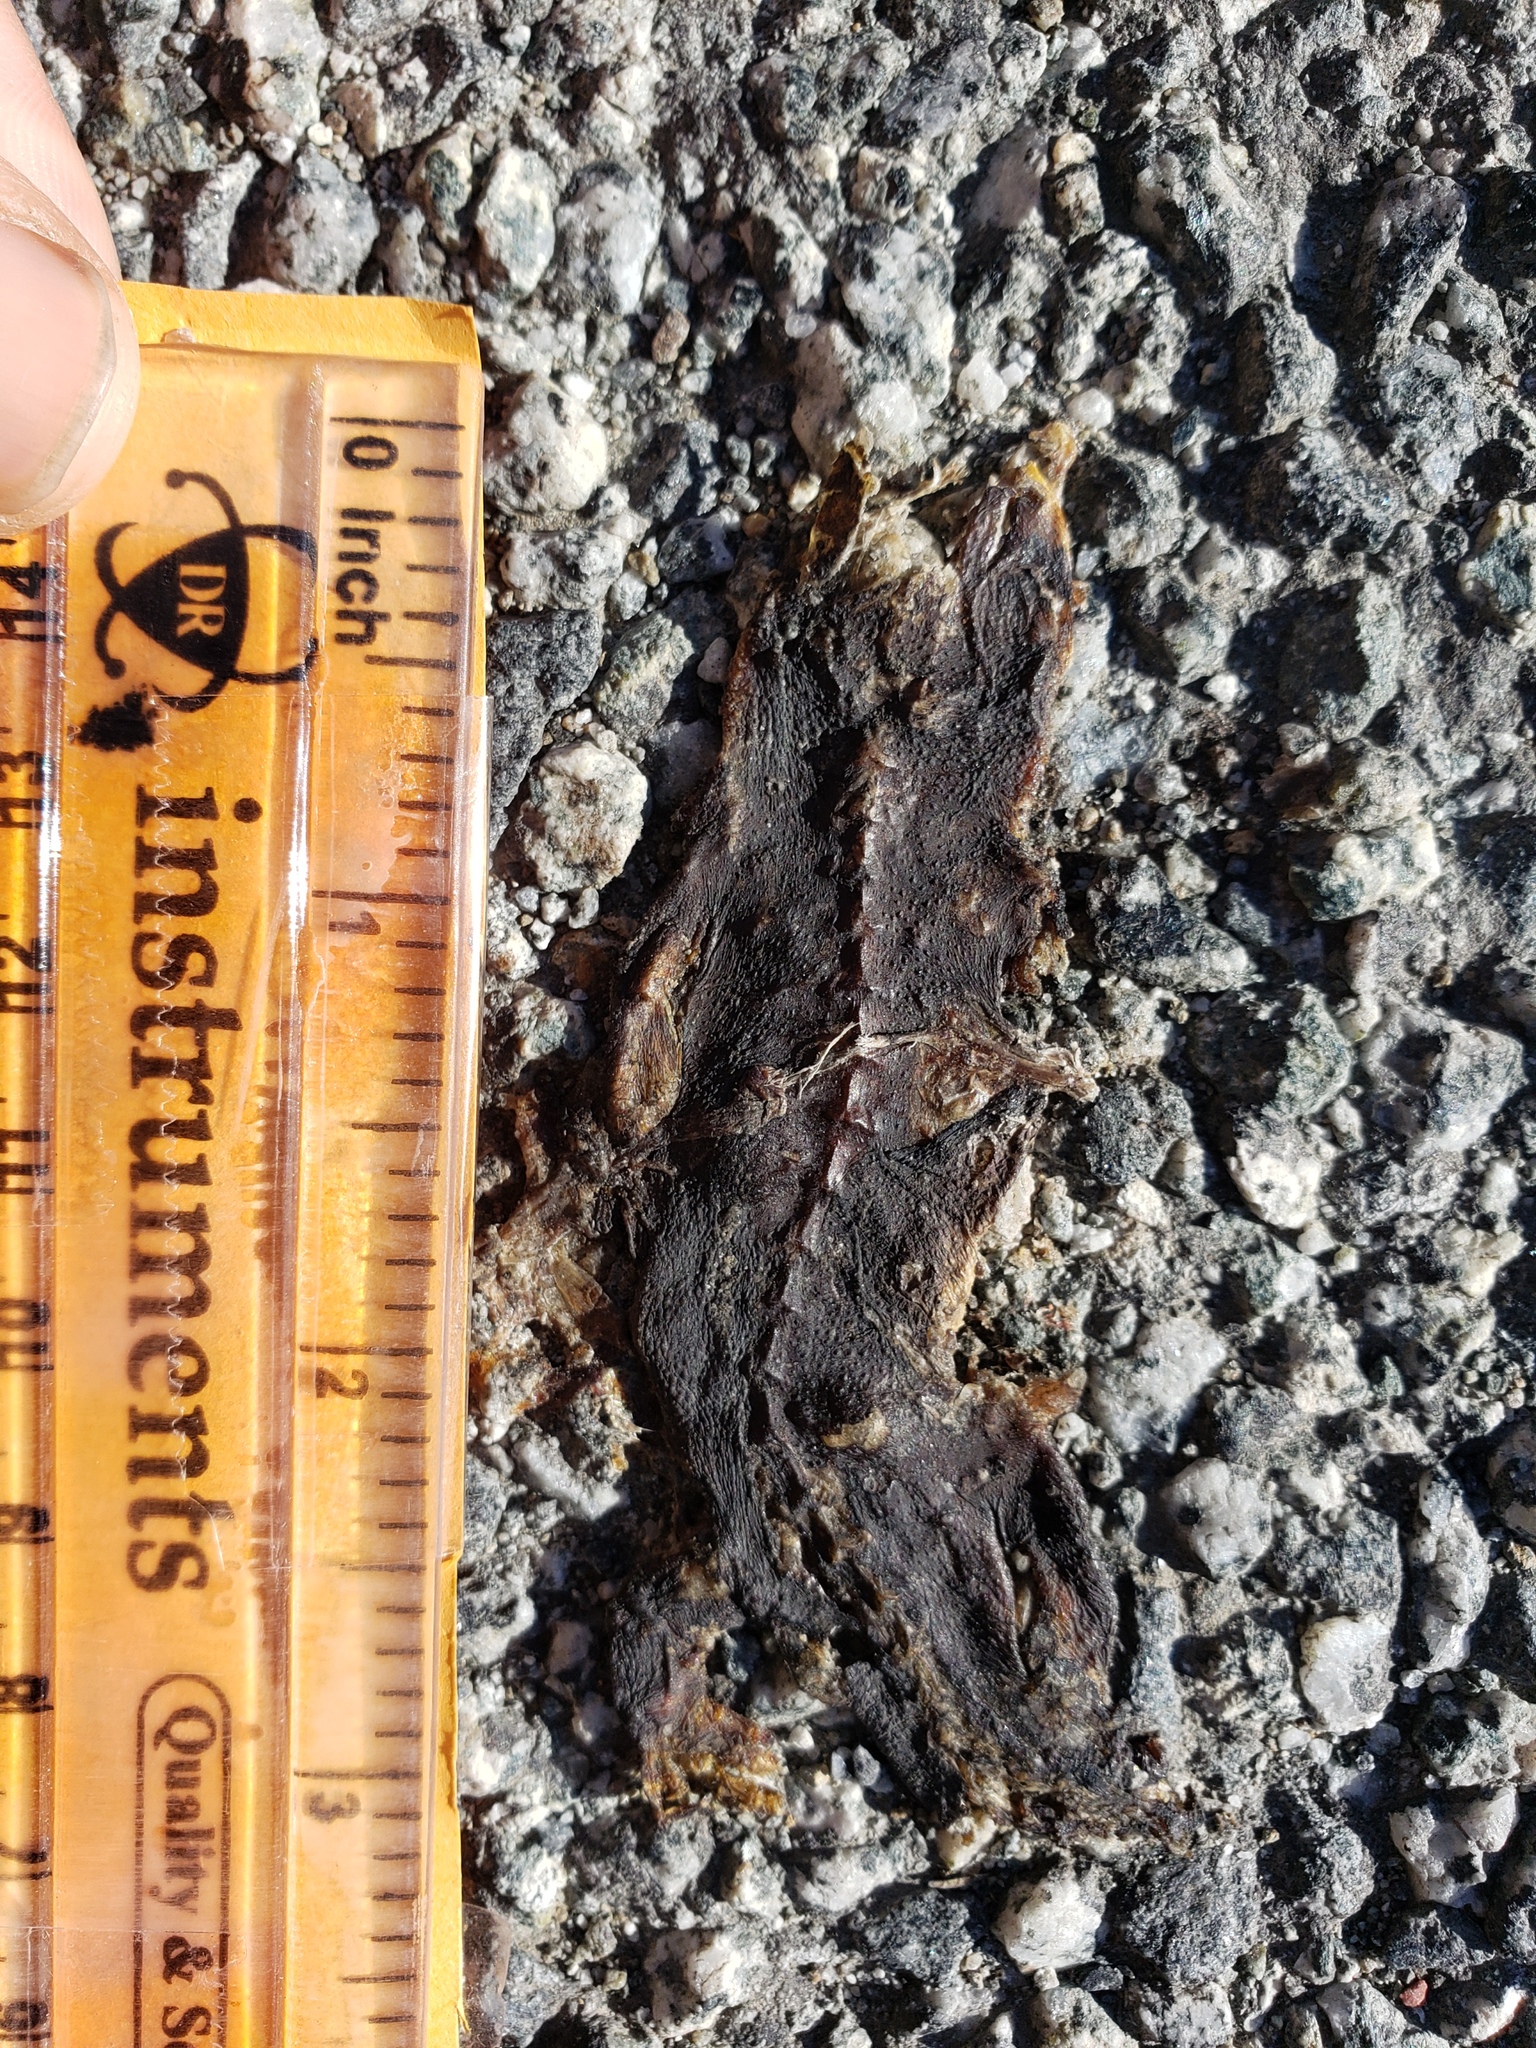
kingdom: Animalia
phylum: Chordata
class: Amphibia
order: Caudata
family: Salamandridae
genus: Taricha
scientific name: Taricha
